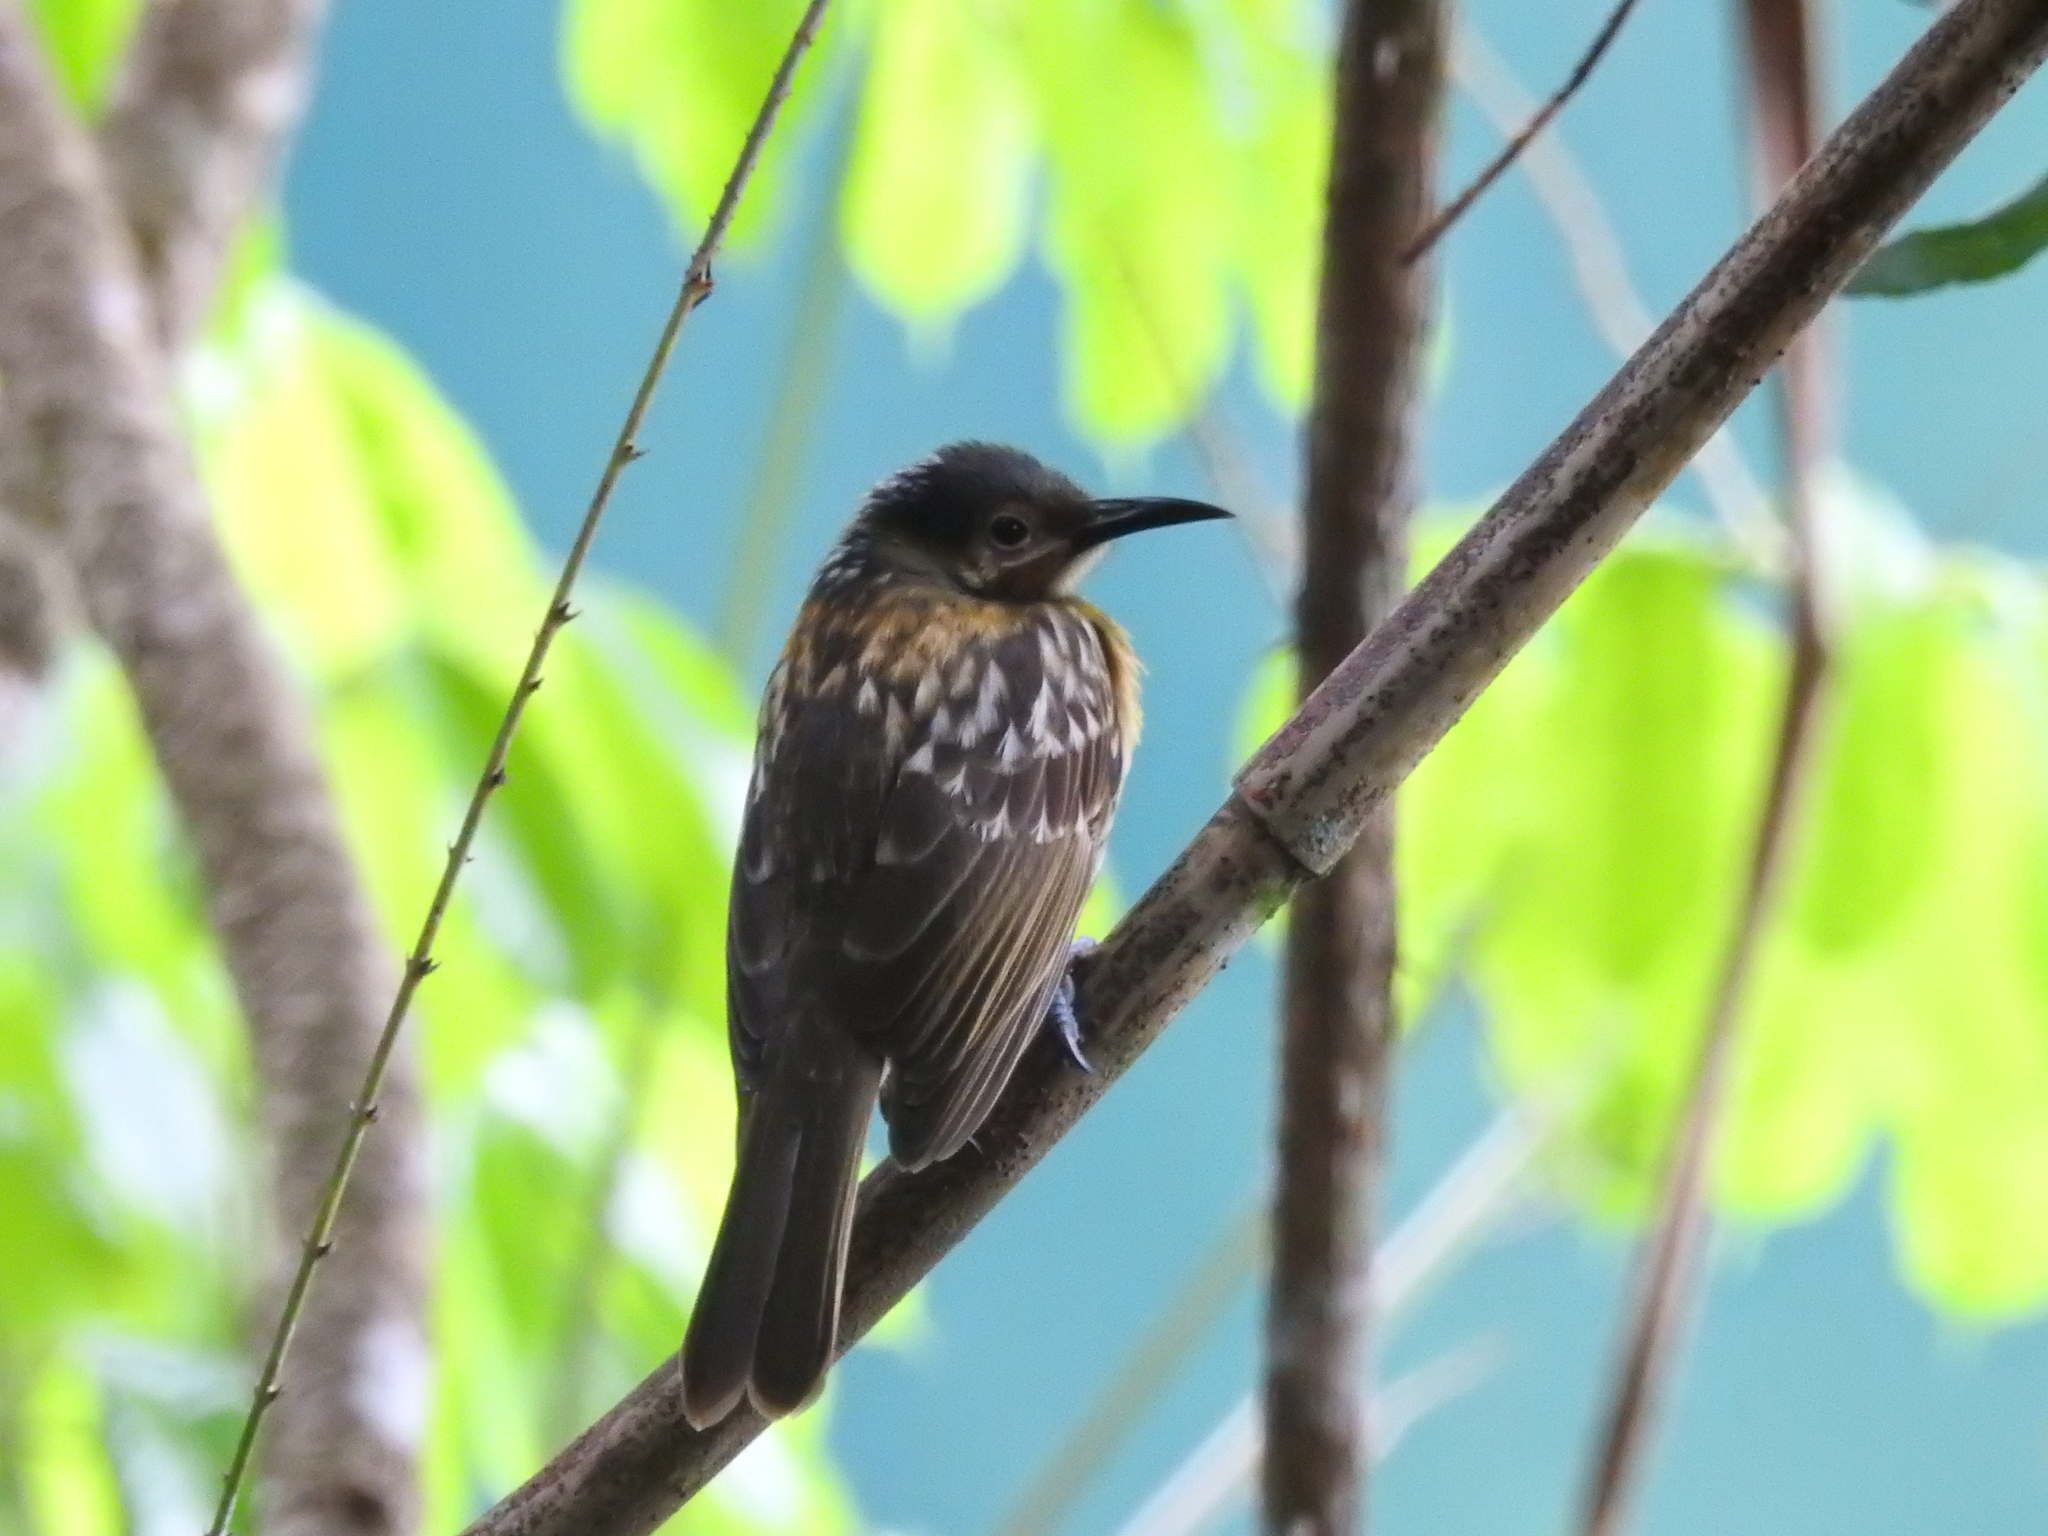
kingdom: Animalia
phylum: Chordata
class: Aves
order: Passeriformes
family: Meliphagidae
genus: Xanthotis
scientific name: Xanthotis macleayanus
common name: Macleay's honeyeater
